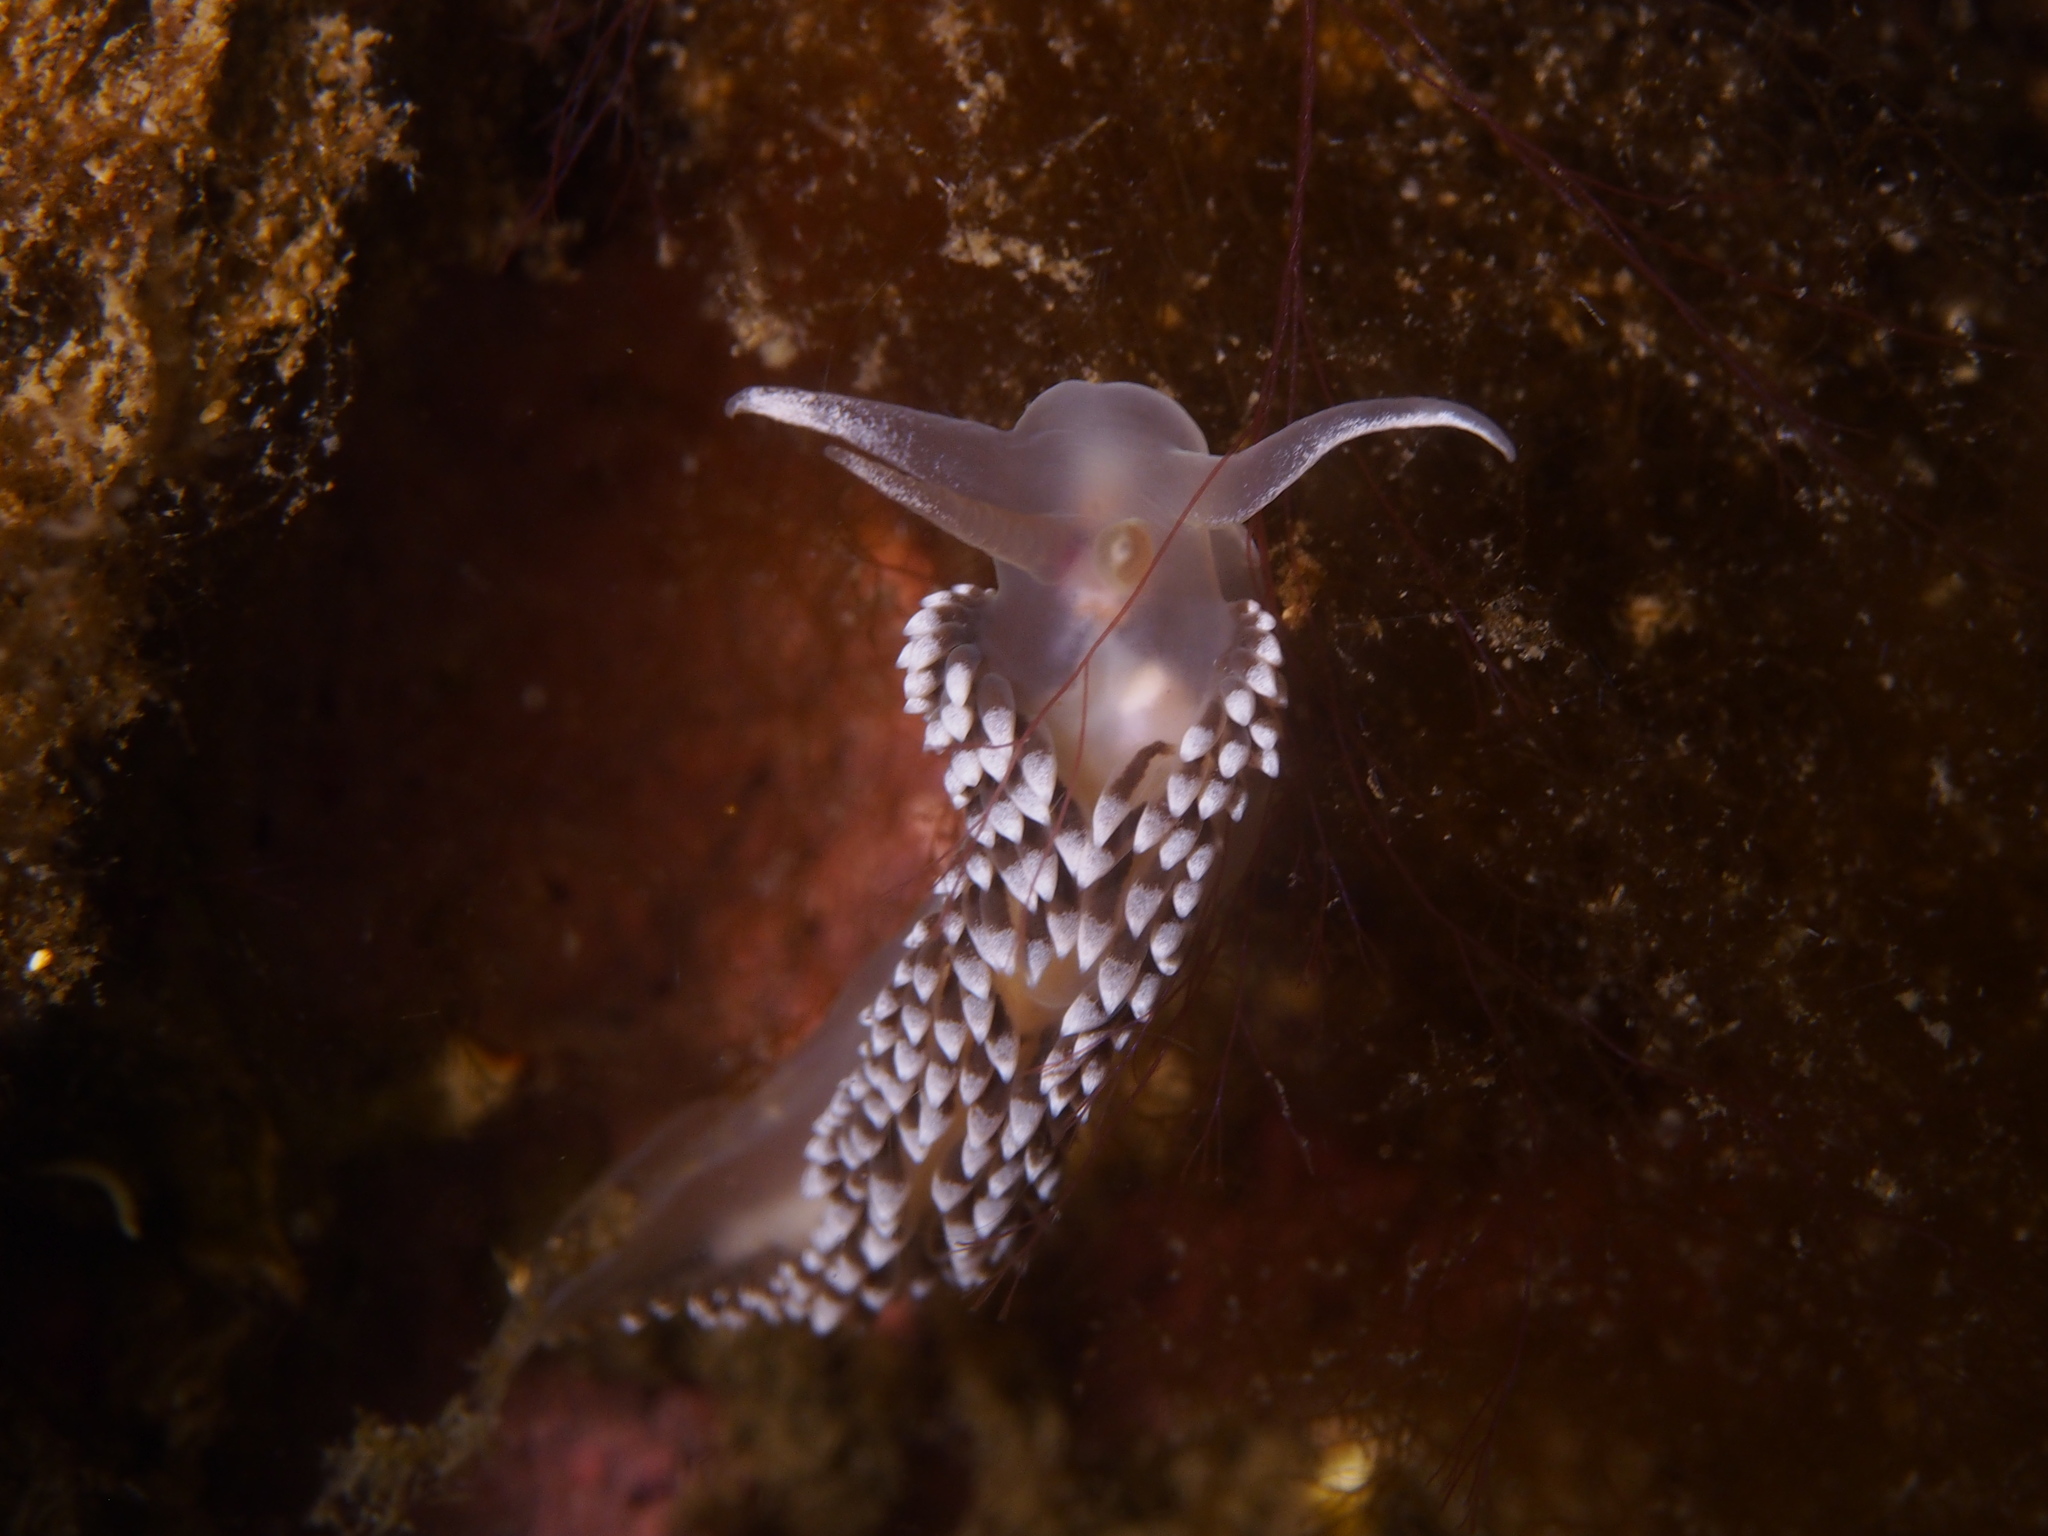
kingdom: Animalia
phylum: Mollusca
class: Gastropoda
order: Nudibranchia
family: Coryphellidae
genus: Coryphella
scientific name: Coryphella verrucosa
